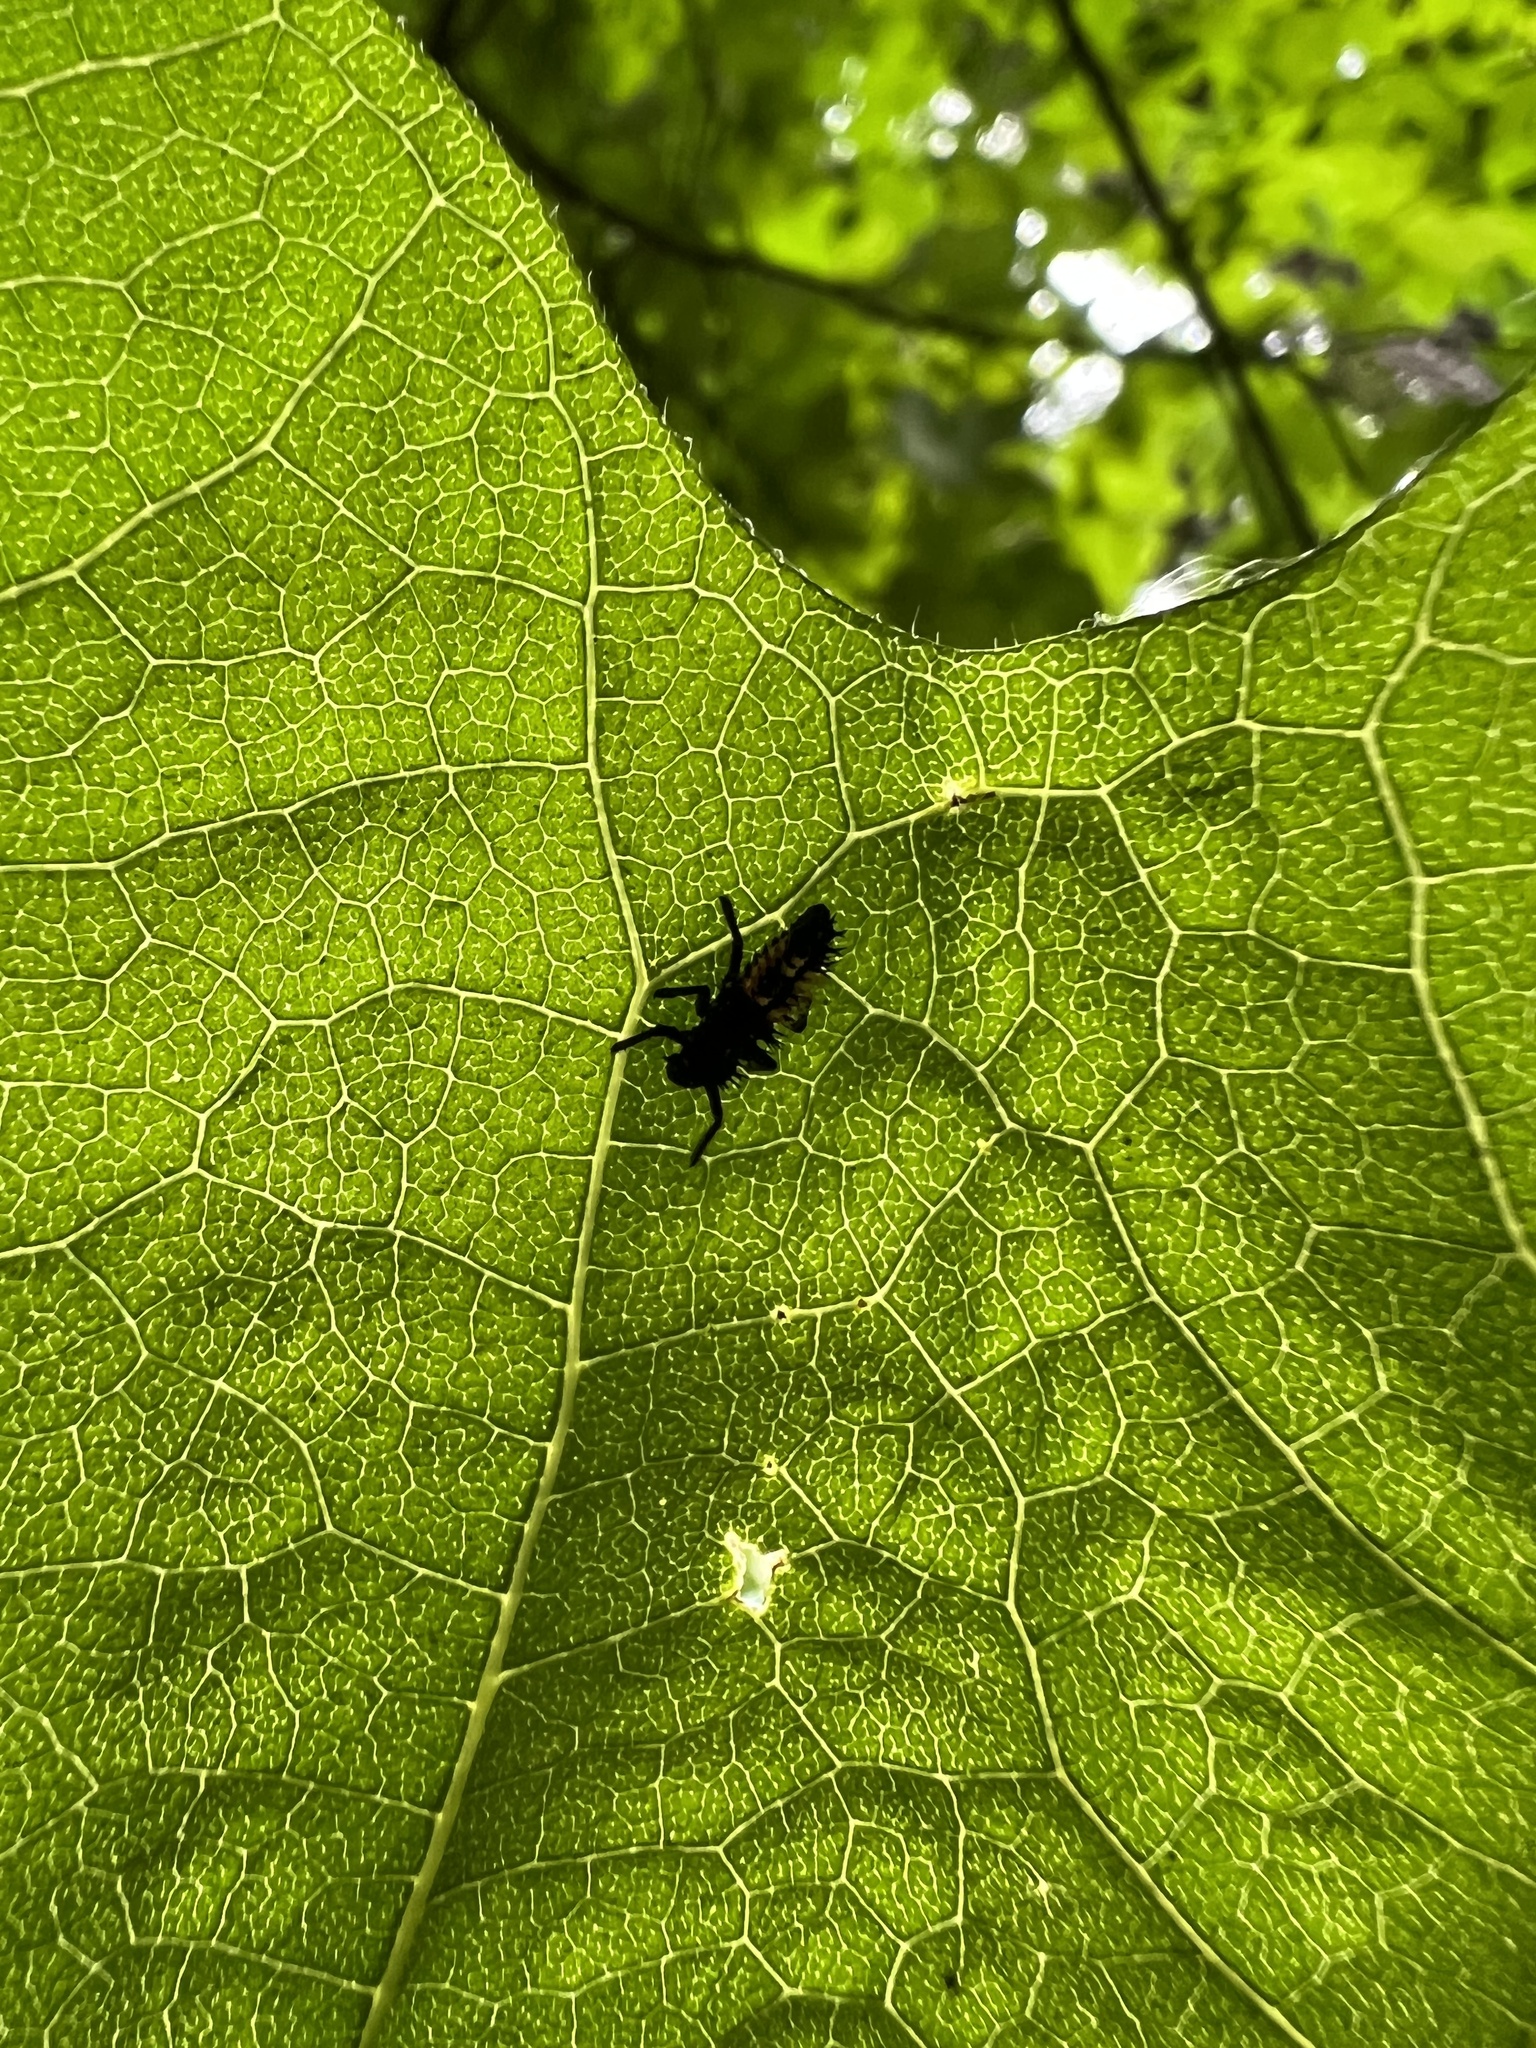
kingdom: Animalia
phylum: Arthropoda
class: Insecta
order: Coleoptera
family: Coccinellidae
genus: Harmonia
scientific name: Harmonia axyridis
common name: Harlequin ladybird
